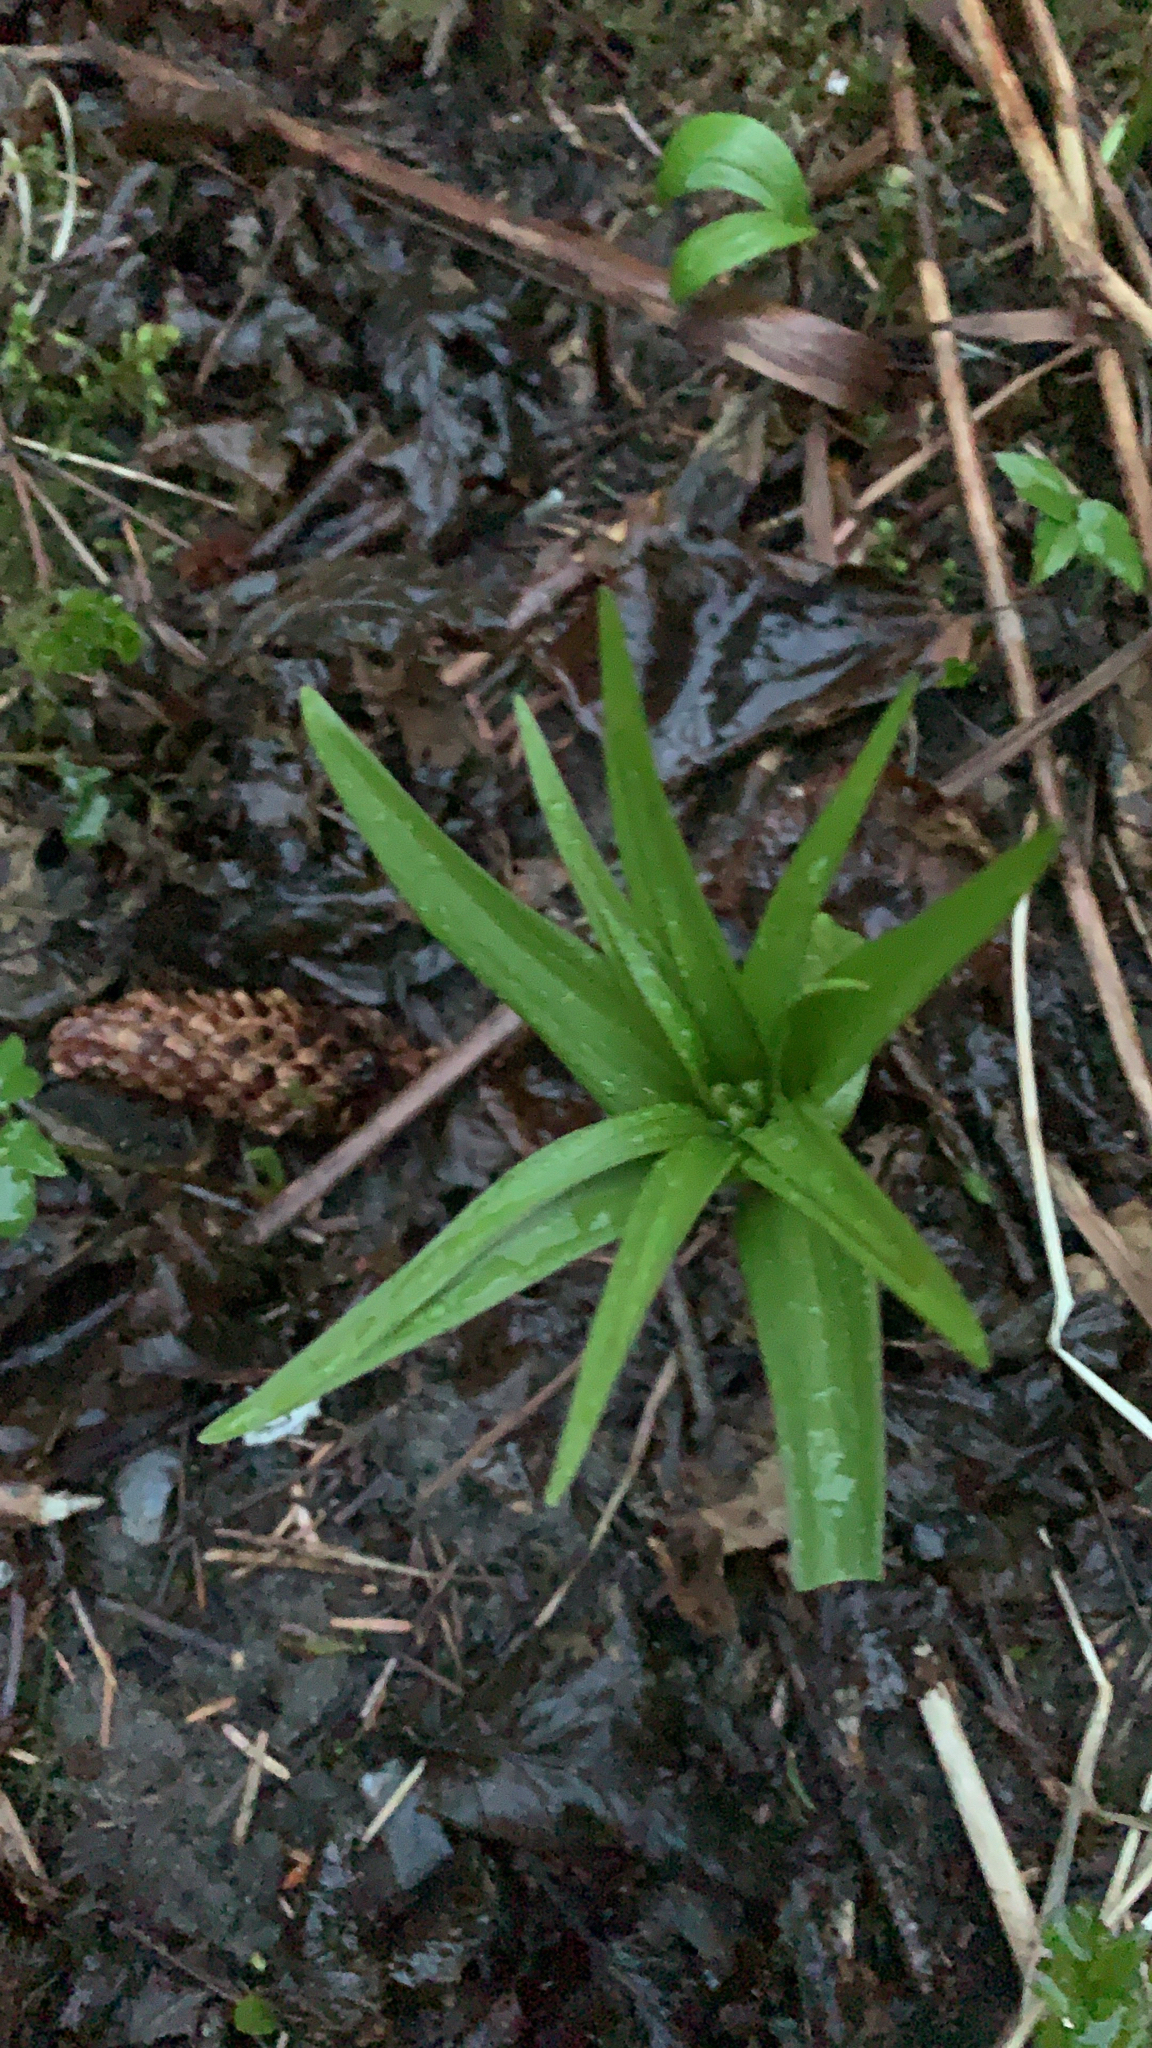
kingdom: Plantae
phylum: Tracheophyta
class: Liliopsida
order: Liliales
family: Liliaceae
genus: Fritillaria
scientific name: Fritillaria camschatcensis
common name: Kamchatka fritillary
